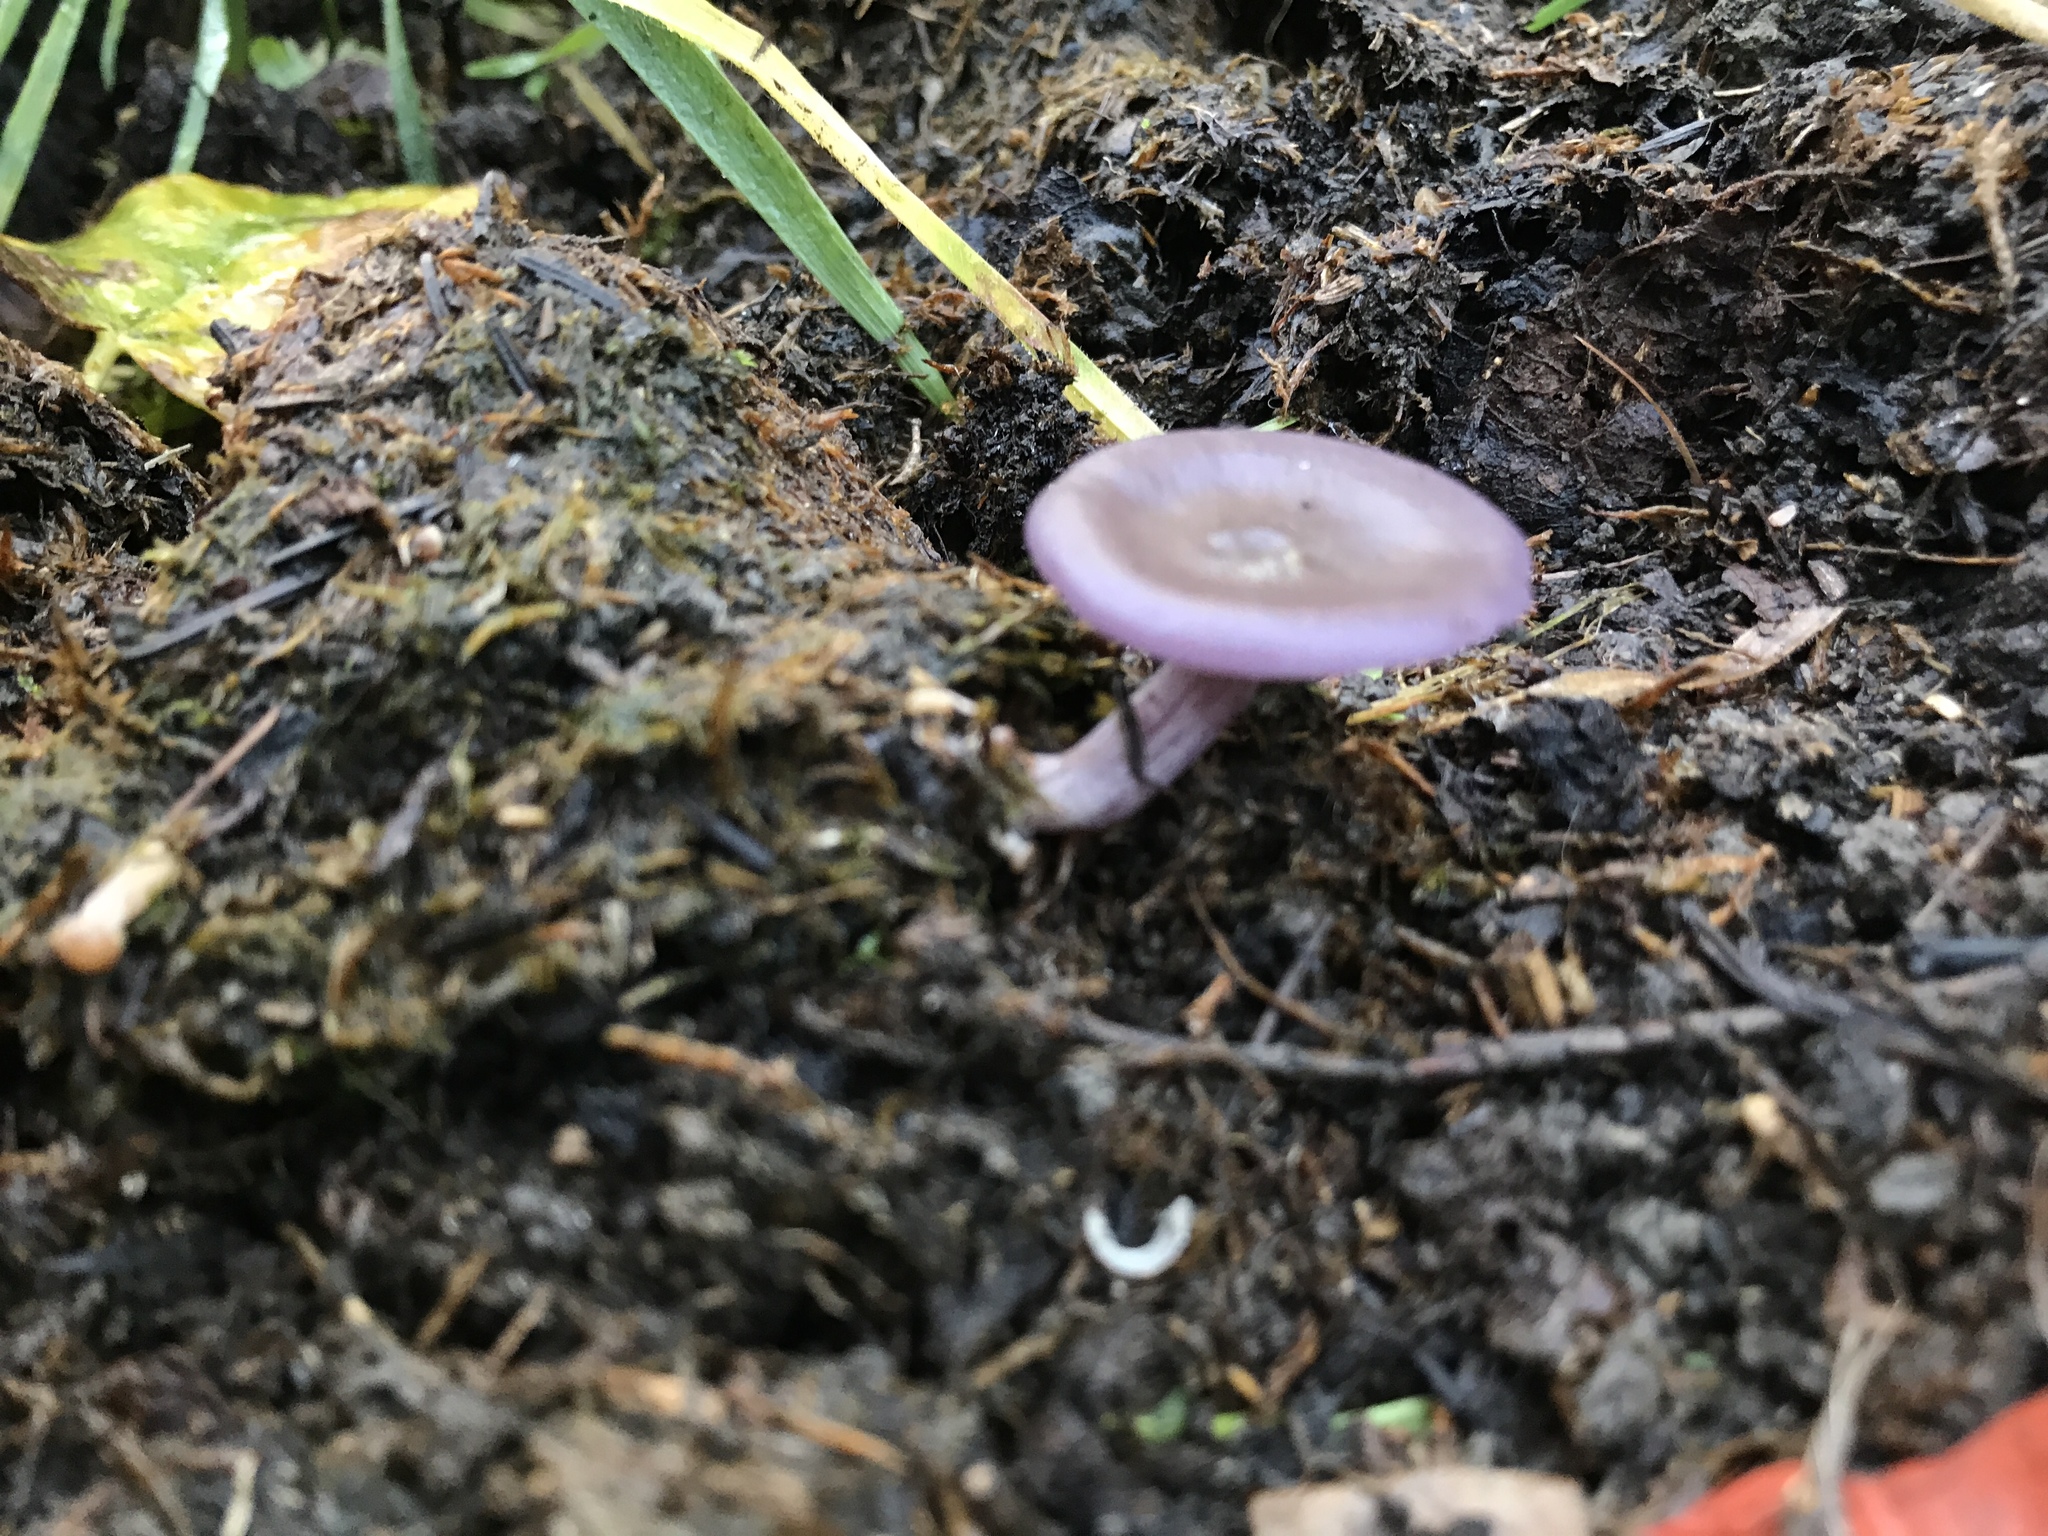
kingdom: Fungi
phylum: Basidiomycota
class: Agaricomycetes
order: Agaricales
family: Tricholomataceae
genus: Collybia
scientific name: Collybia
